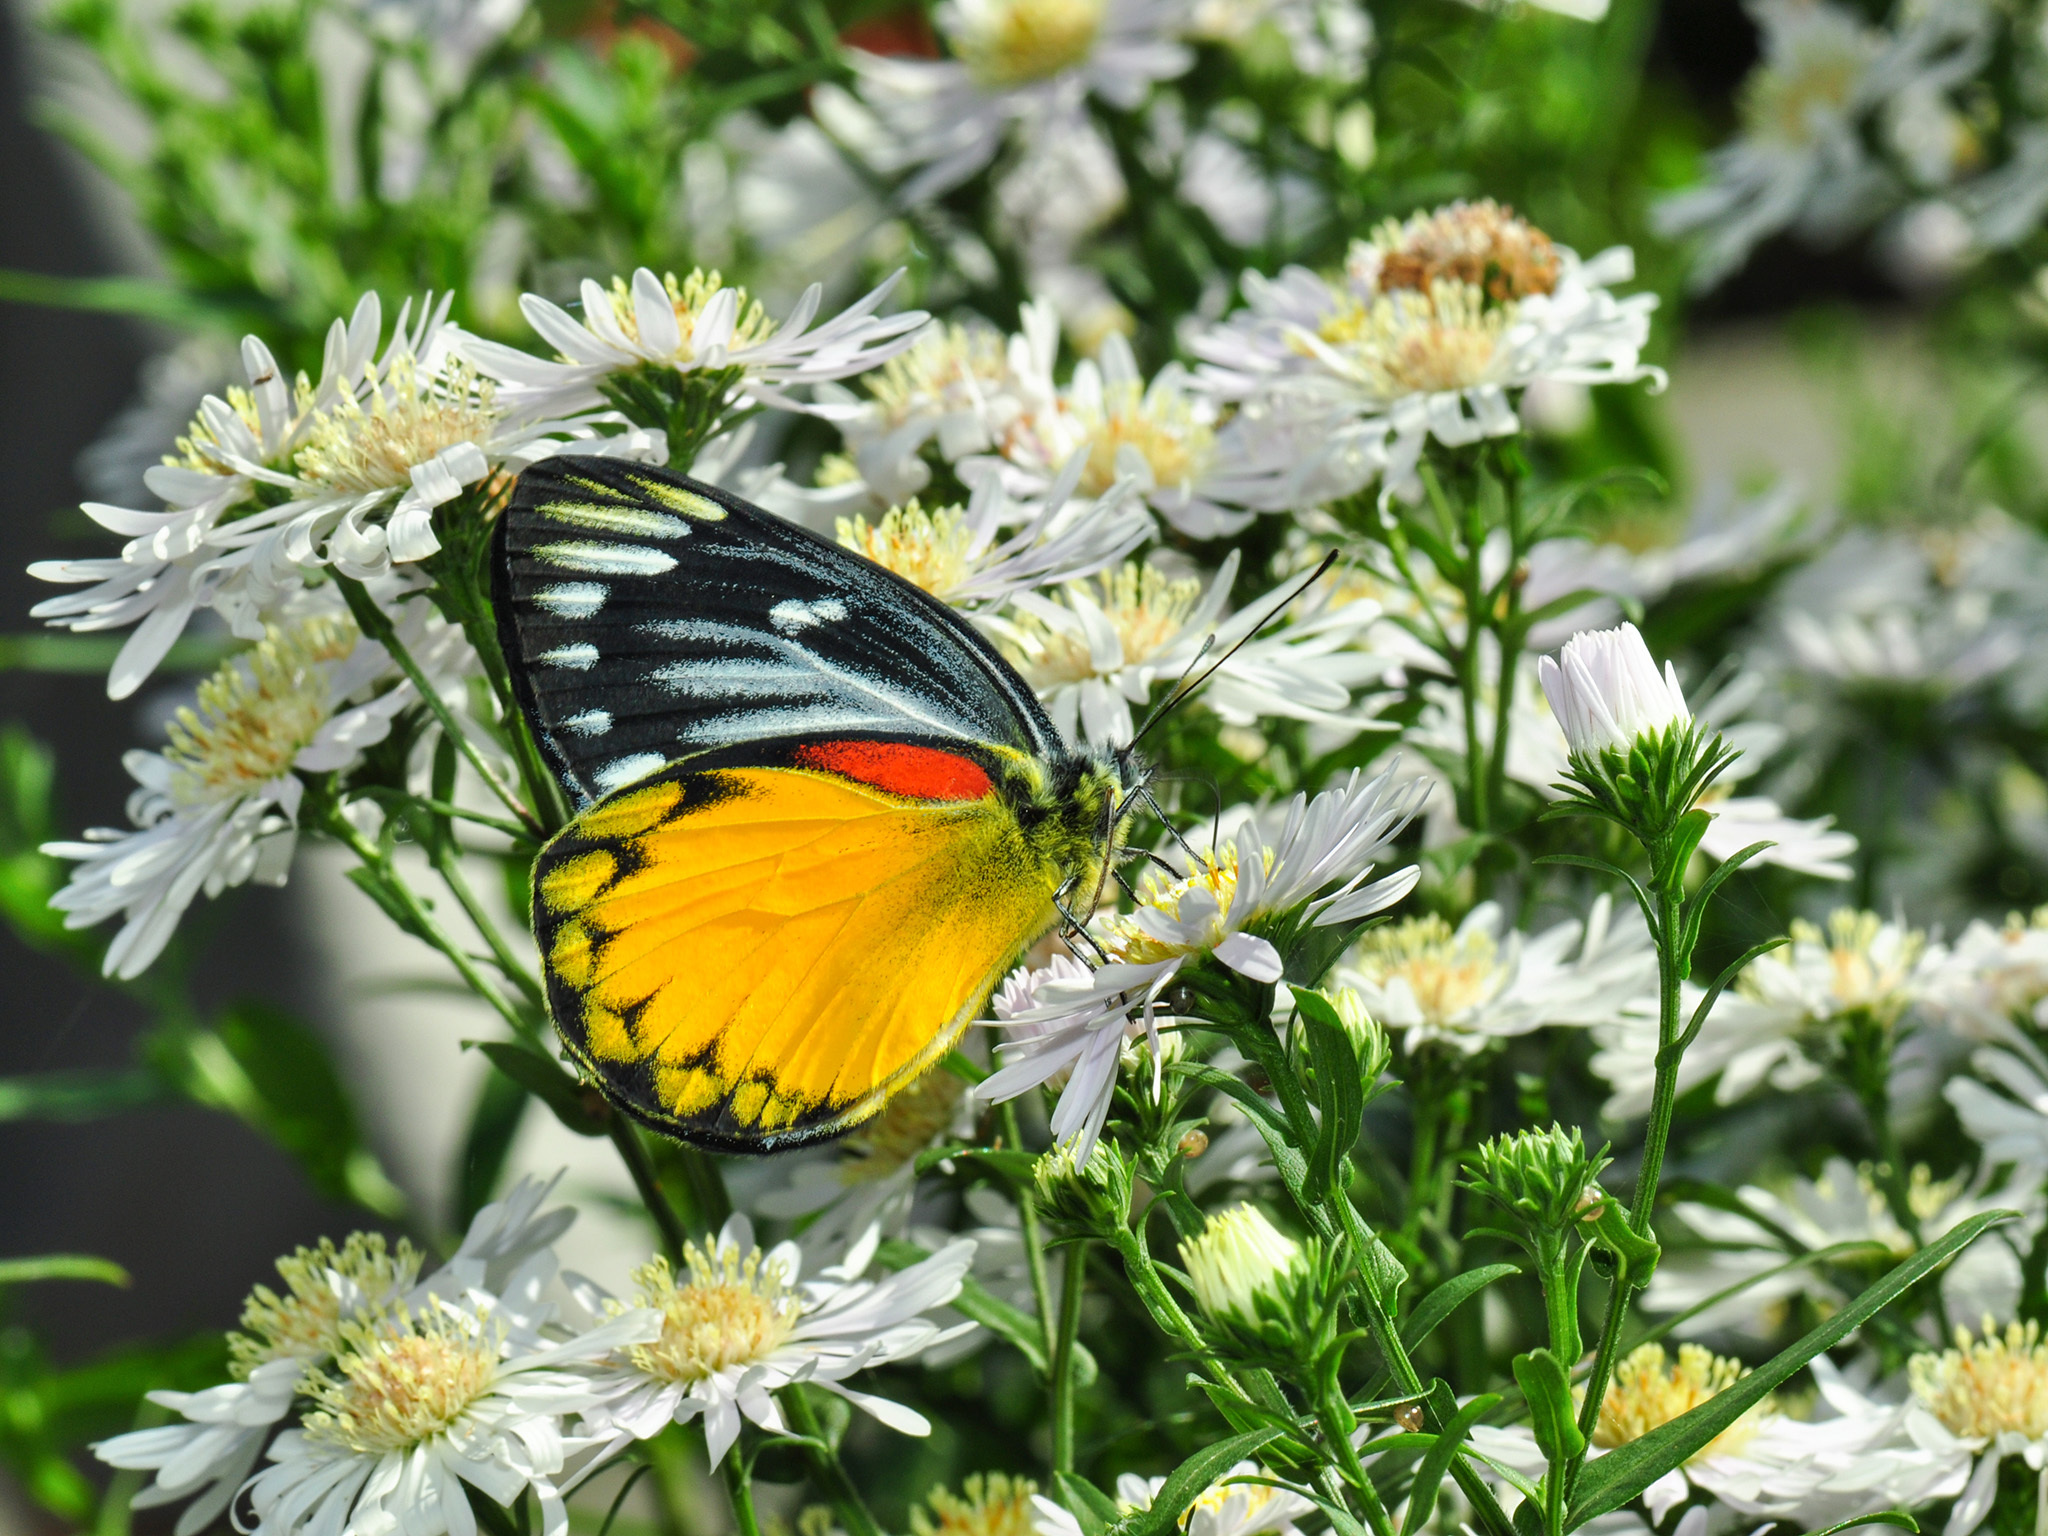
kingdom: Animalia
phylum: Arthropoda
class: Insecta
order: Lepidoptera
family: Pieridae
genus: Delias
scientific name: Delias descombesi
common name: Red-spot jezebel
